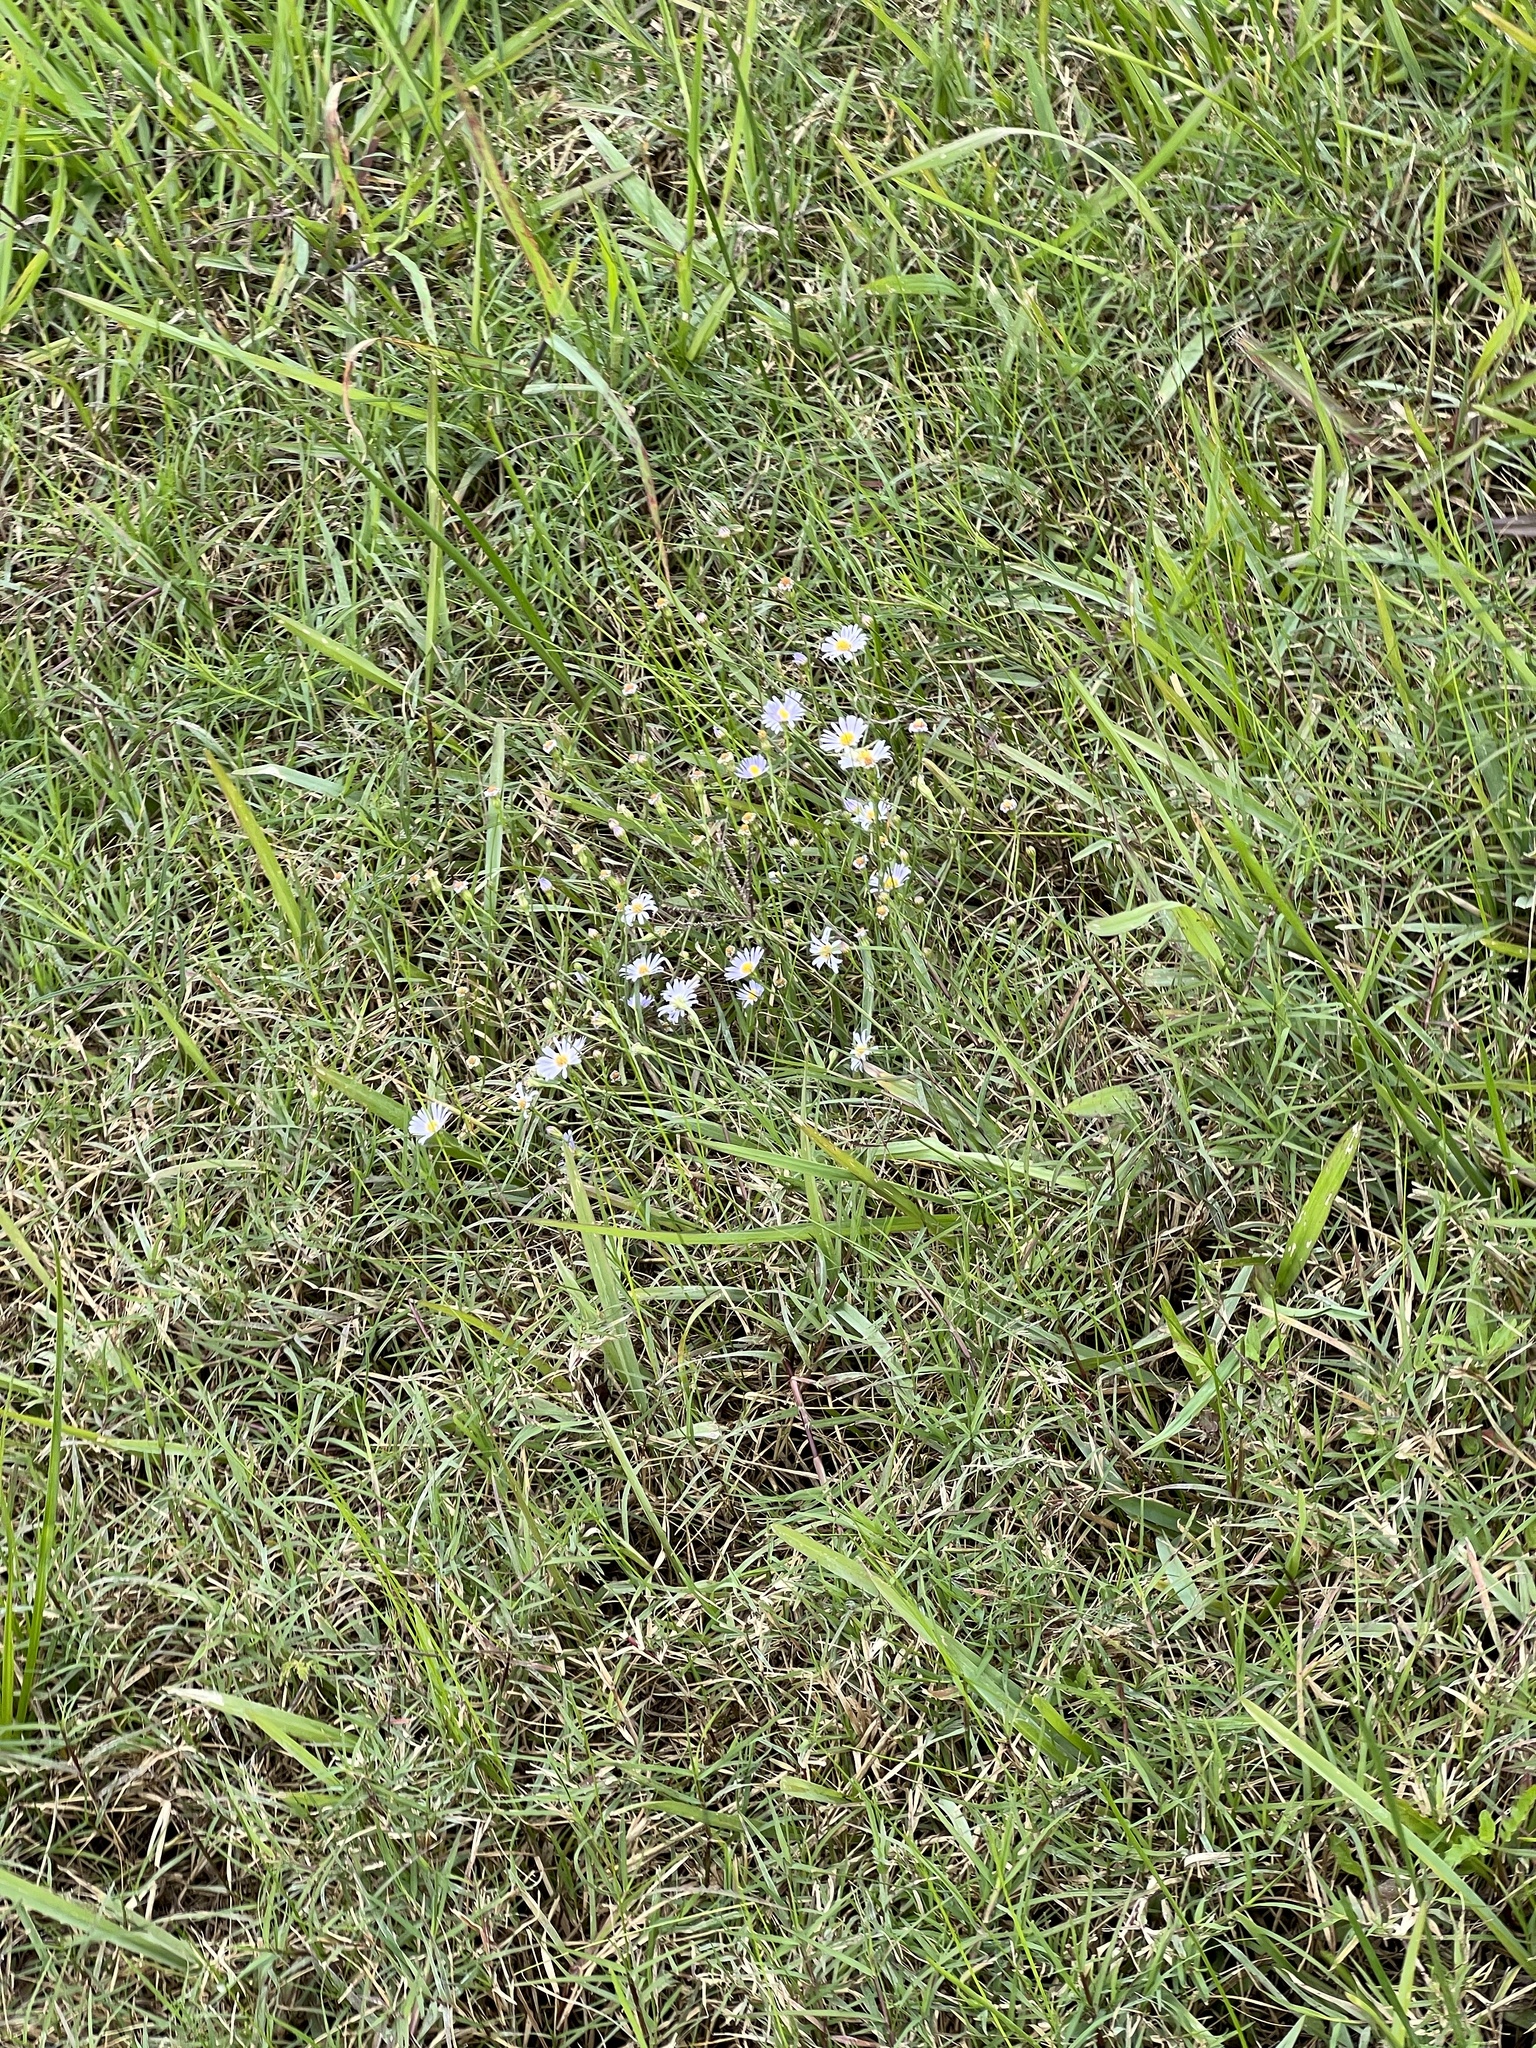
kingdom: Plantae
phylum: Tracheophyta
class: Magnoliopsida
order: Asterales
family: Asteraceae
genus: Symphyotrichum
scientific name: Symphyotrichum divaricatum
